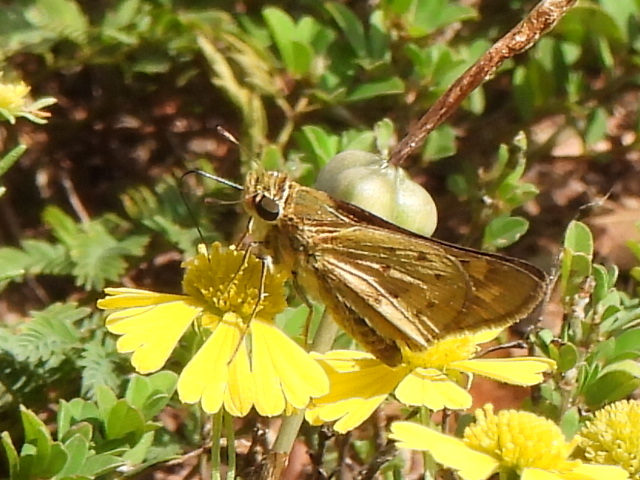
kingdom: Animalia
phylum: Arthropoda
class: Insecta
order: Lepidoptera
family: Hesperiidae
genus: Hylephila
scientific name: Hylephila phyleus
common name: Fiery skipper
